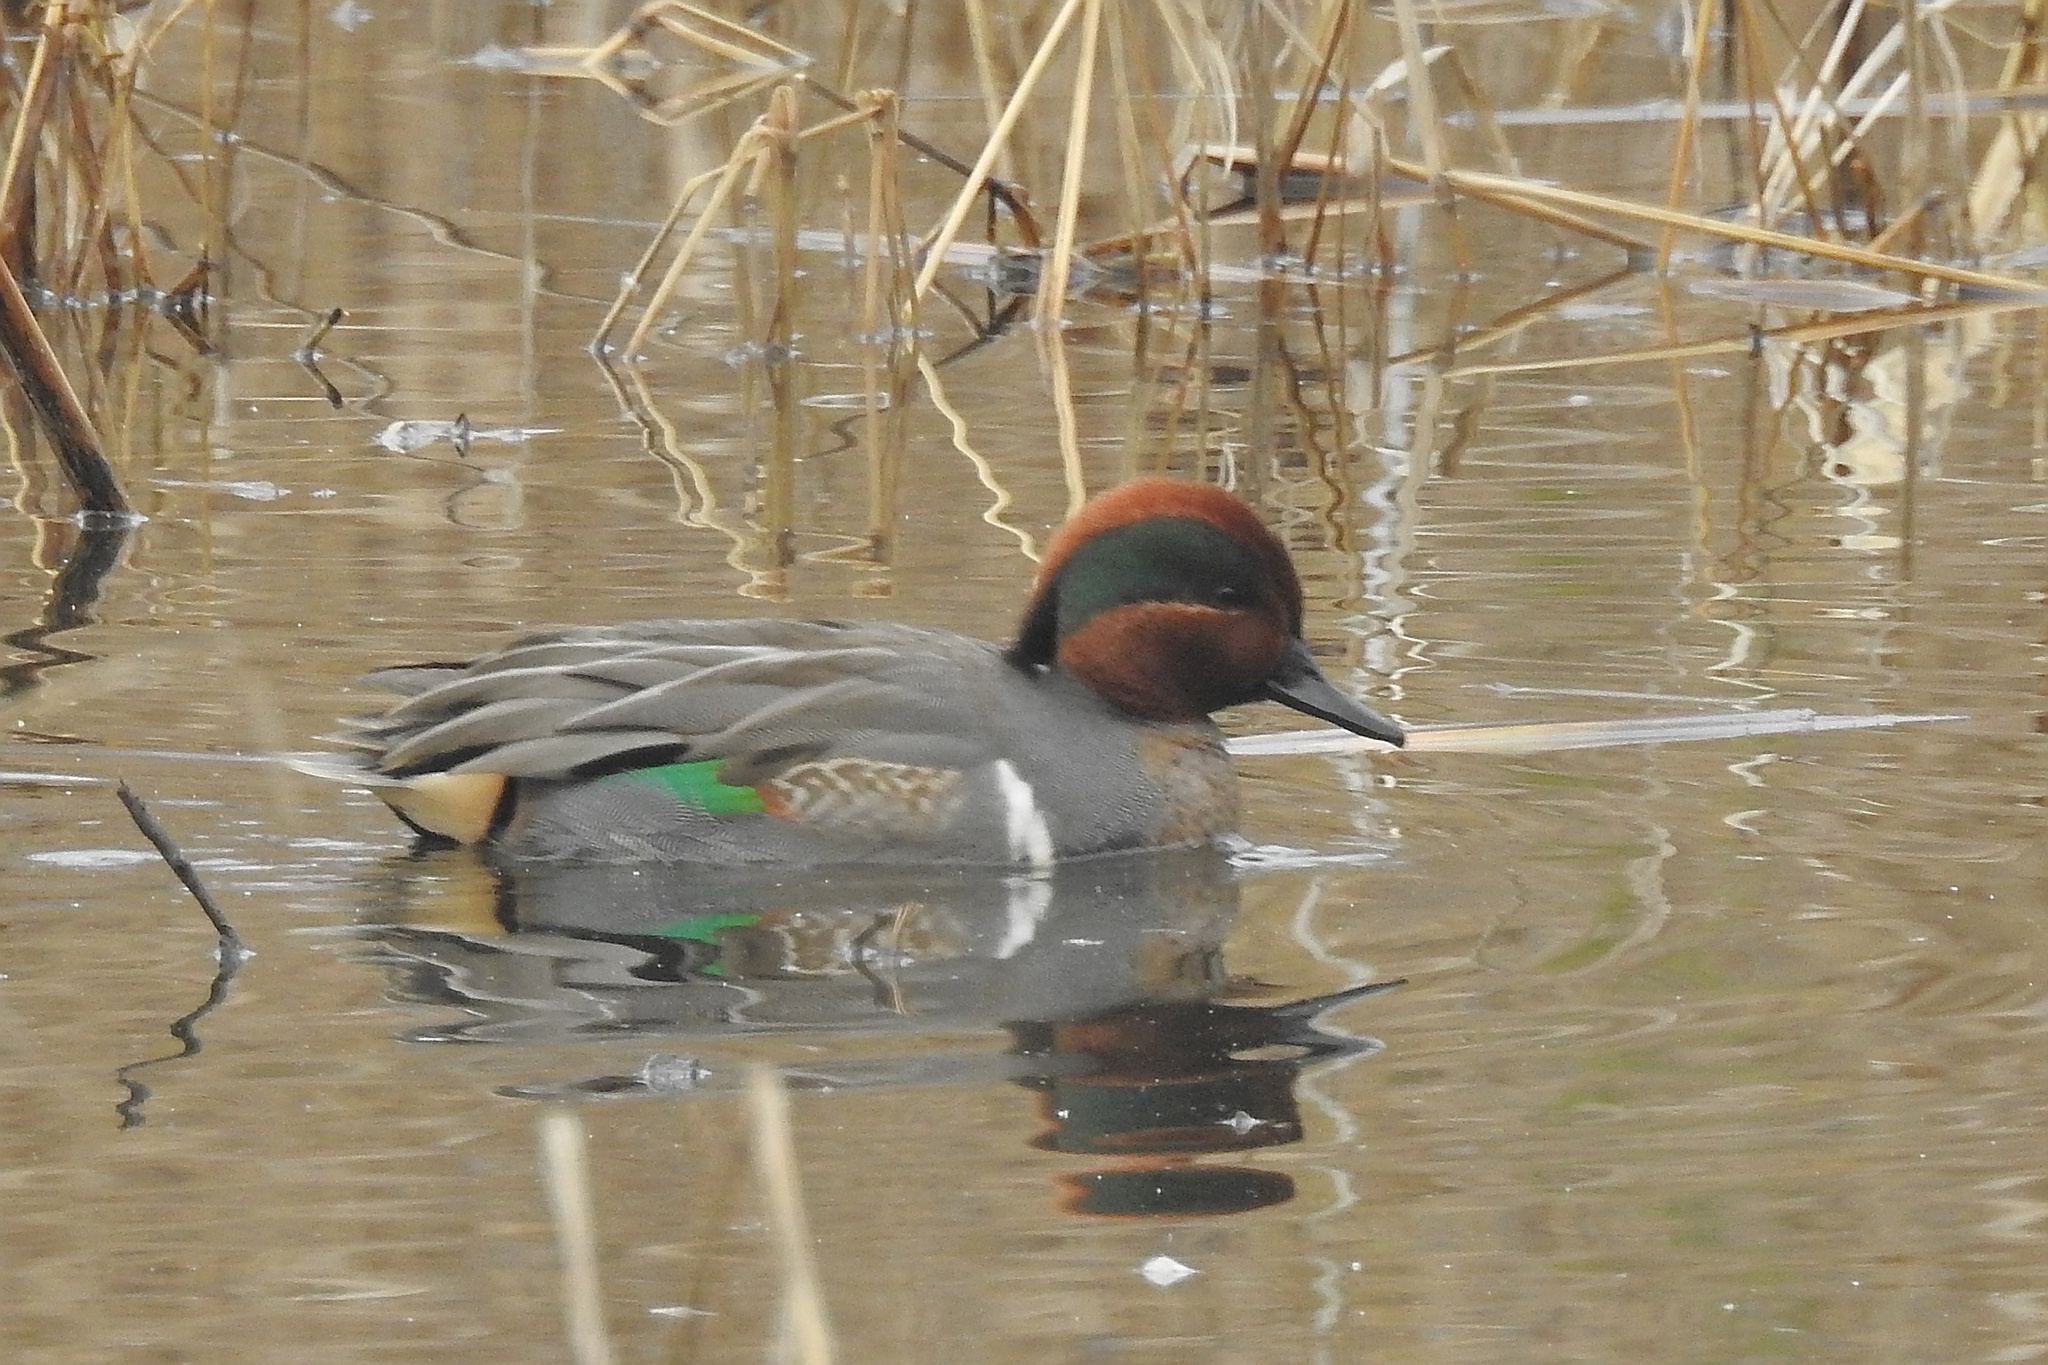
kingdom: Animalia
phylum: Chordata
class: Aves
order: Anseriformes
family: Anatidae
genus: Anas
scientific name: Anas crecca
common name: Eurasian teal
